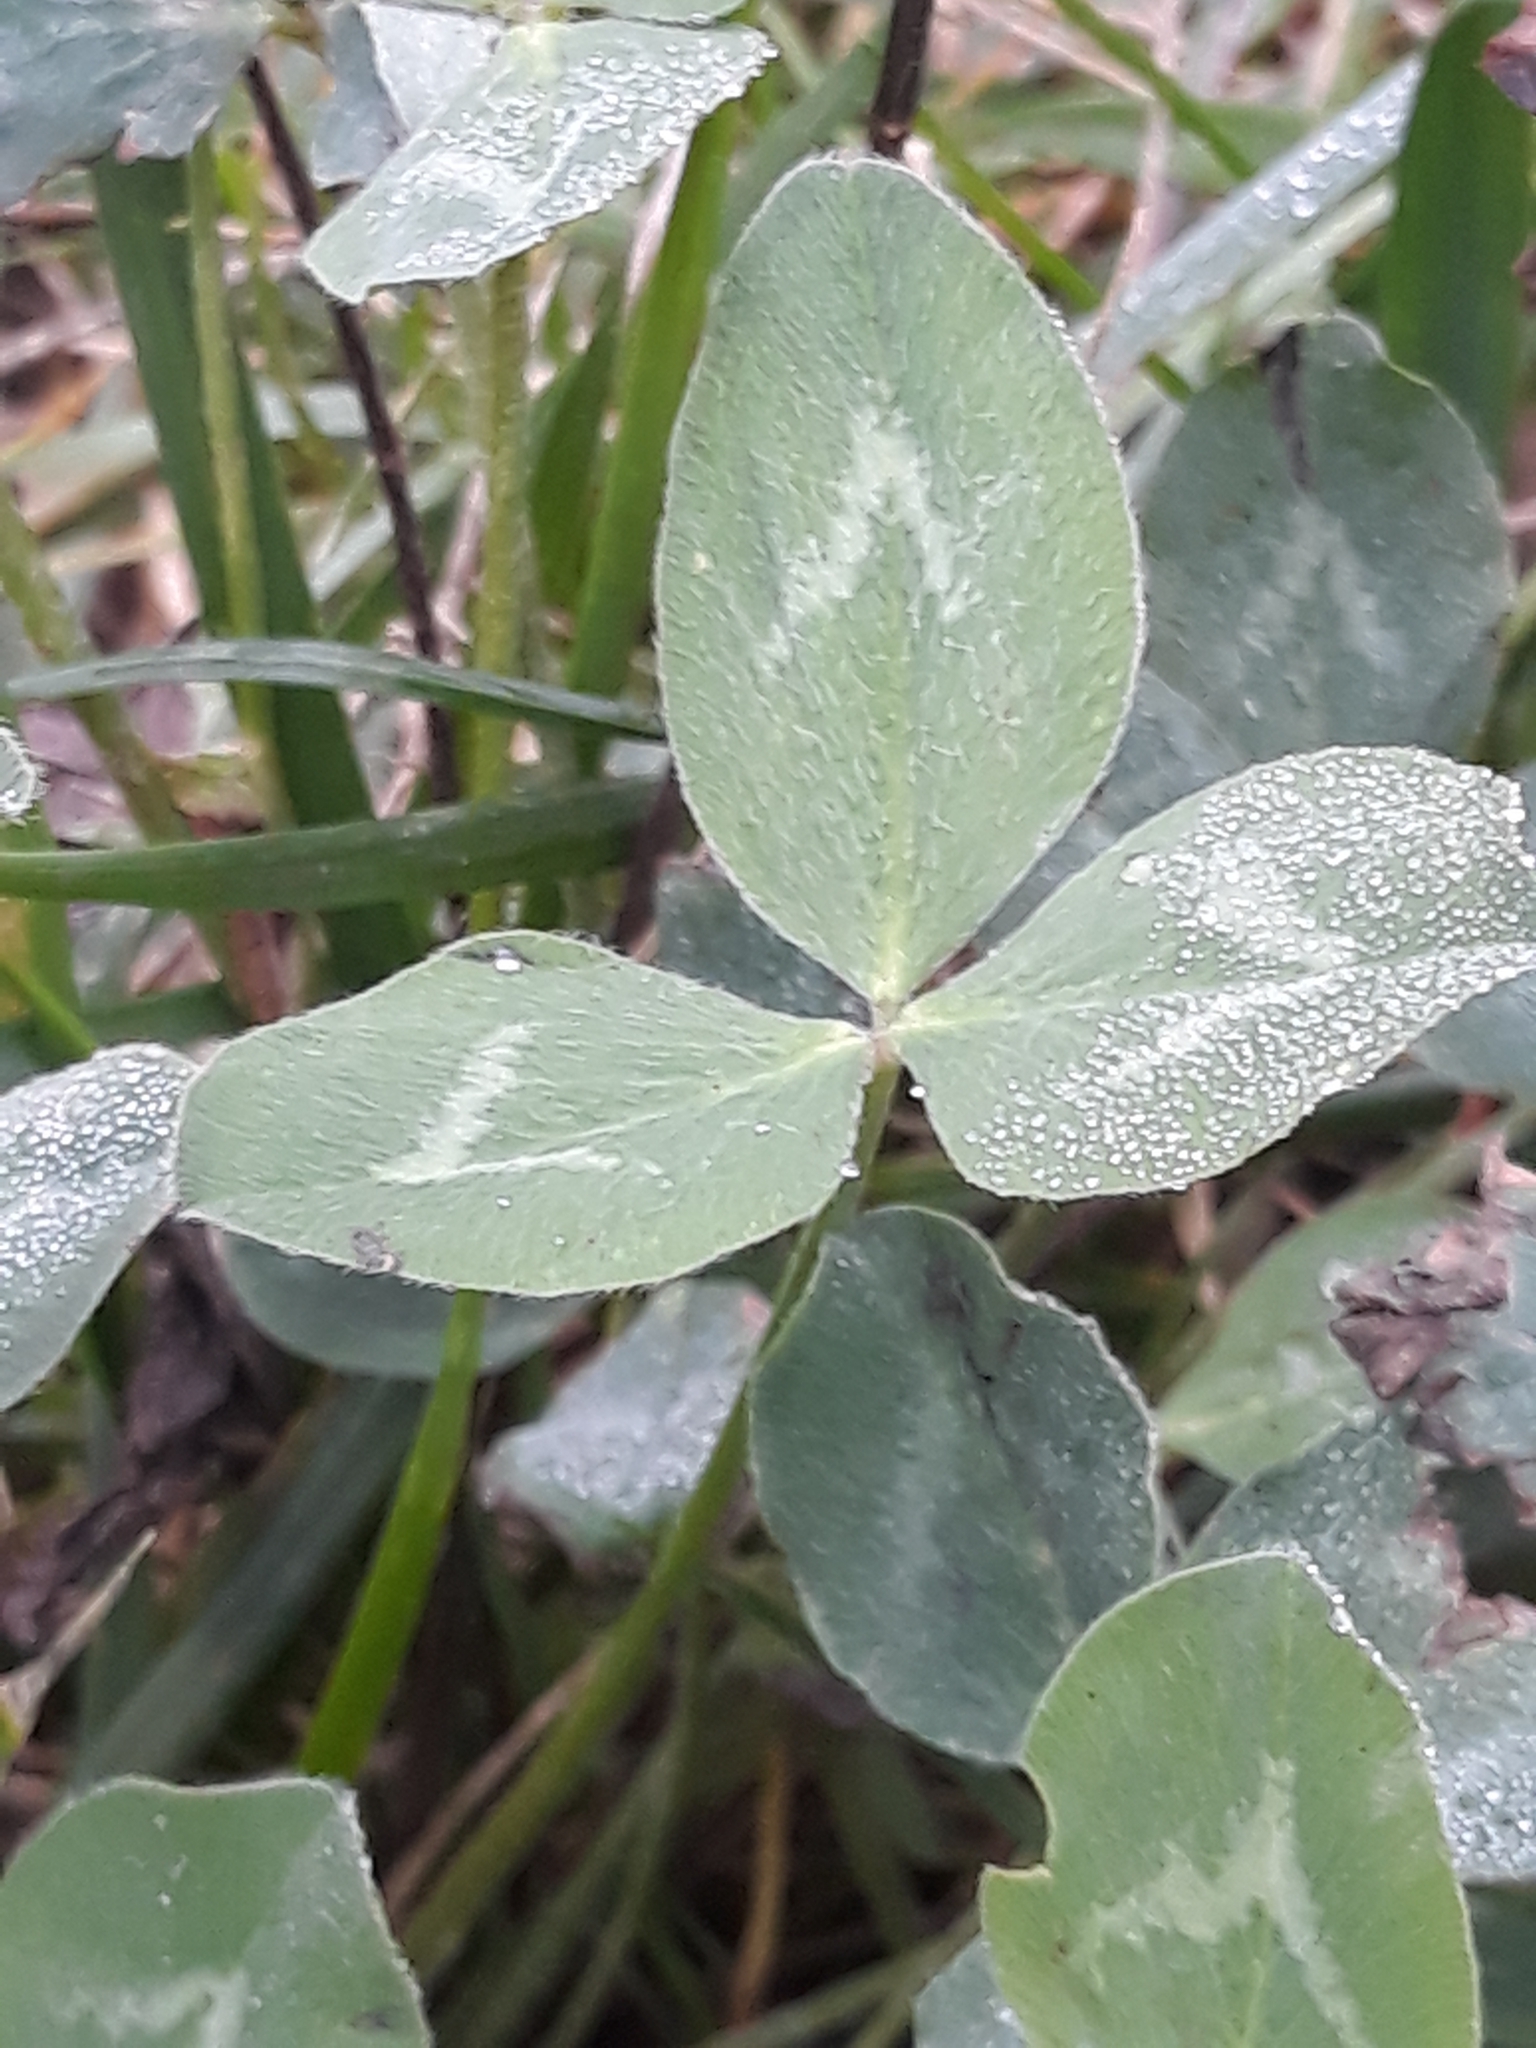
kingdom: Plantae
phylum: Tracheophyta
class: Magnoliopsida
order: Fabales
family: Fabaceae
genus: Trifolium
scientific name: Trifolium pratense
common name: Red clover
